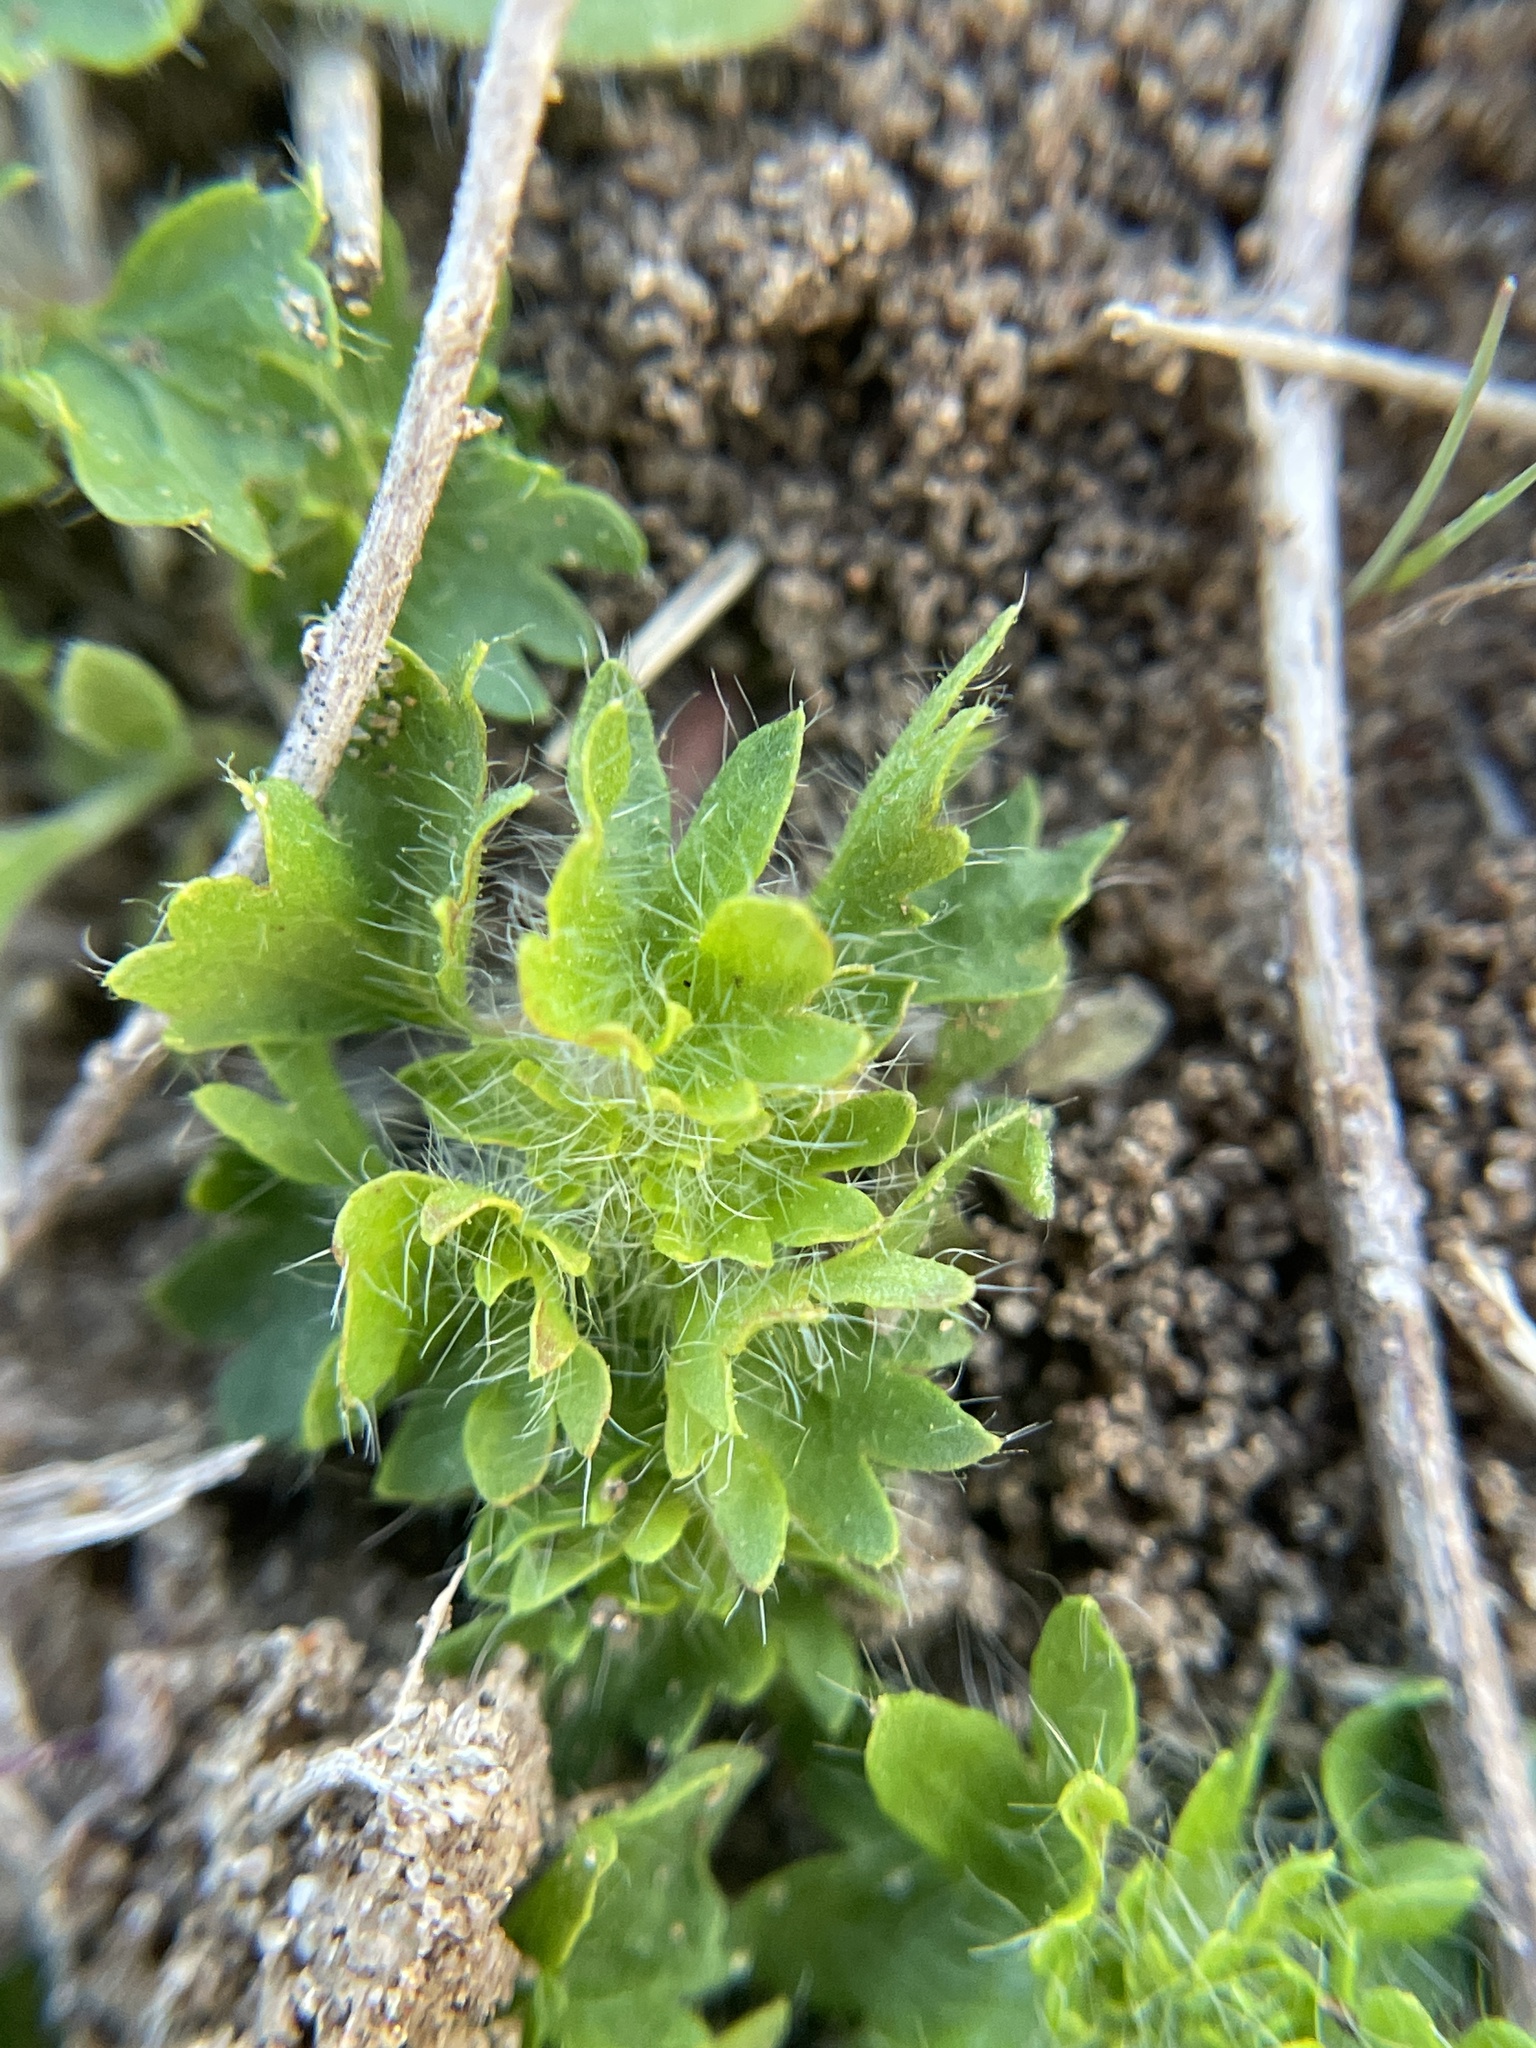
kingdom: Plantae
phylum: Tracheophyta
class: Magnoliopsida
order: Malpighiales
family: Euphorbiaceae
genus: Acalypha
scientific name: Acalypha radians
